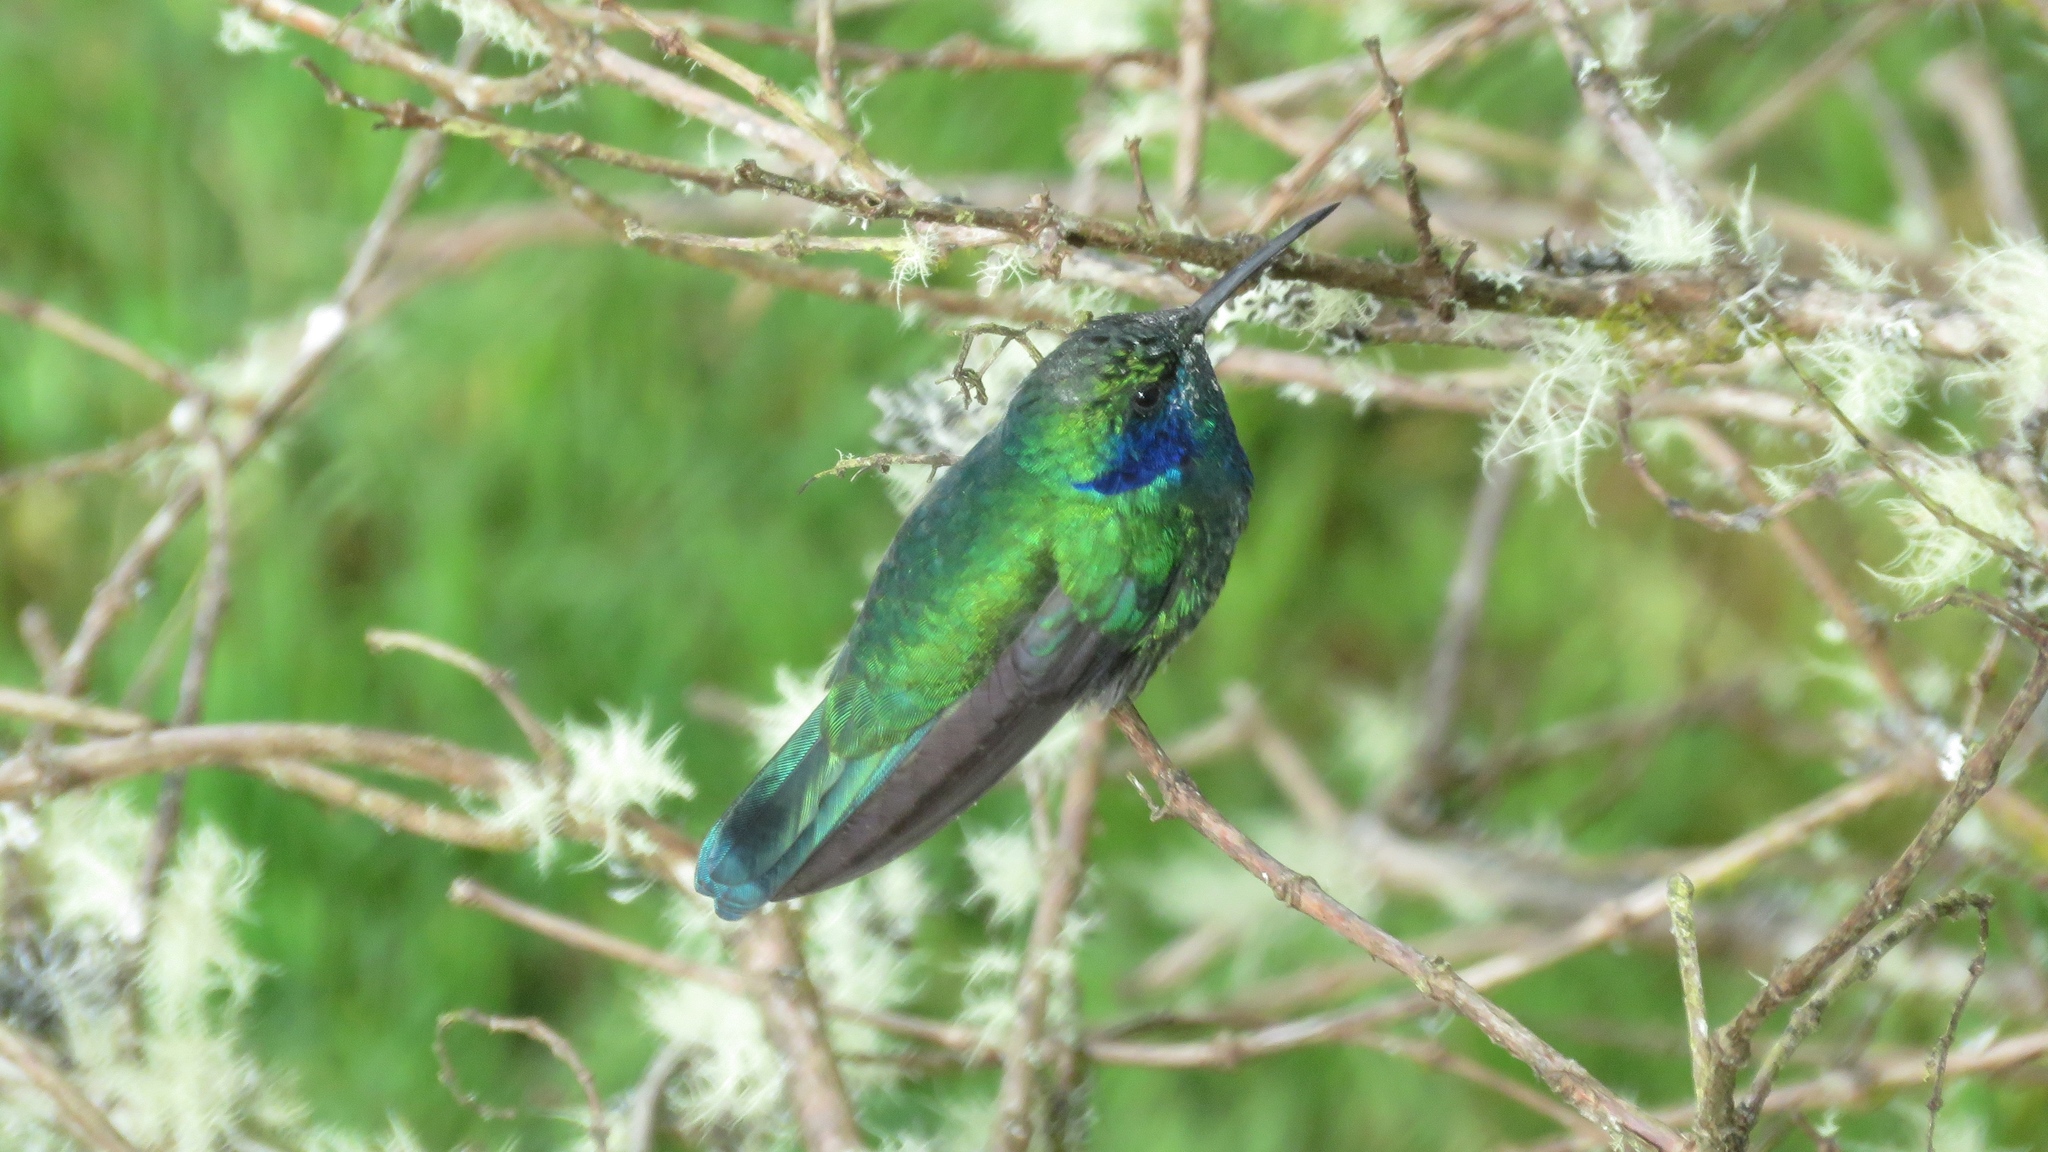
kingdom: Animalia
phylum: Chordata
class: Aves
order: Apodiformes
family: Trochilidae
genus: Colibri
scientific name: Colibri cyanotus
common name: Lesser violetear
